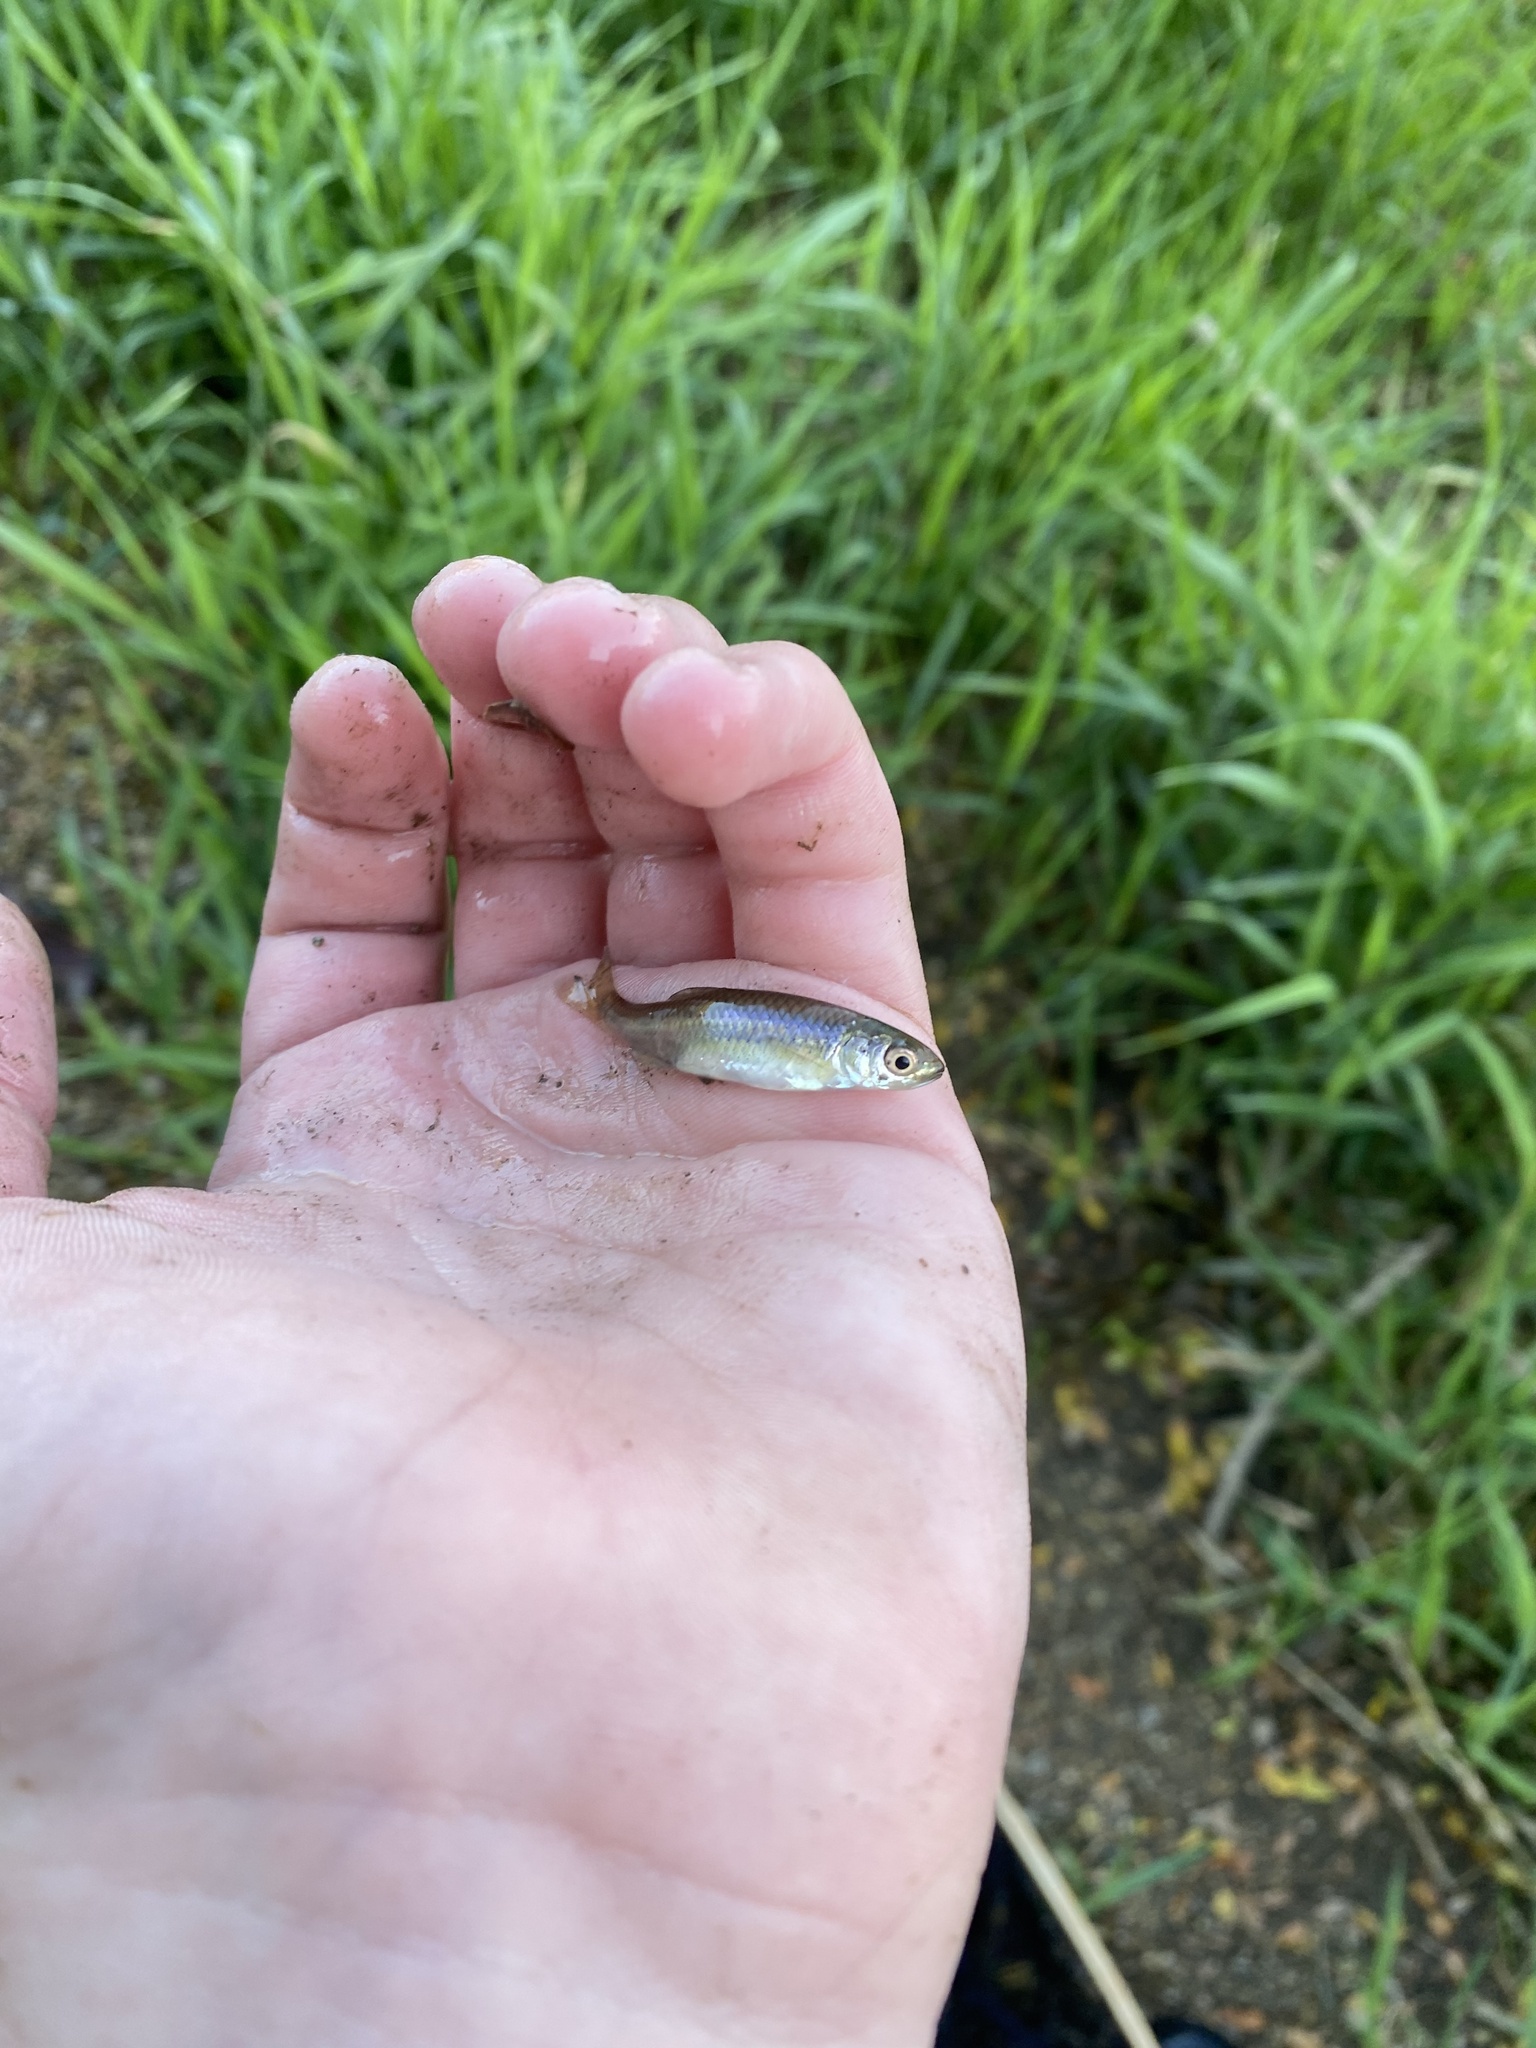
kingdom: Animalia
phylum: Chordata
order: Cypriniformes
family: Cyprinidae
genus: Cyprinella
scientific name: Cyprinella spiloptera
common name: Spotfin shiner
